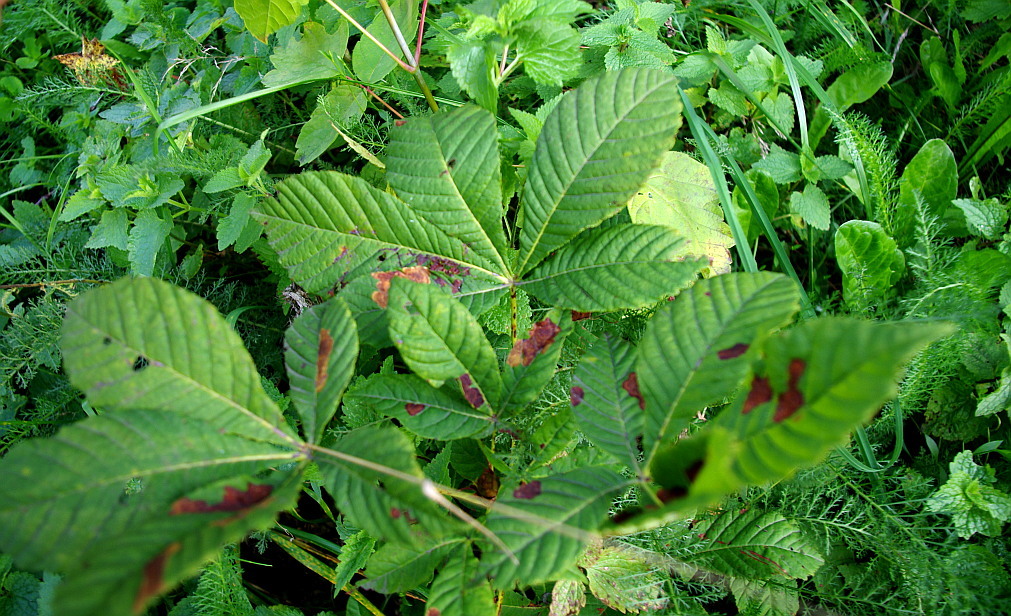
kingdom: Plantae
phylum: Tracheophyta
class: Magnoliopsida
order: Sapindales
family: Sapindaceae
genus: Aesculus
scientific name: Aesculus hippocastanum
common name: Horse-chestnut
